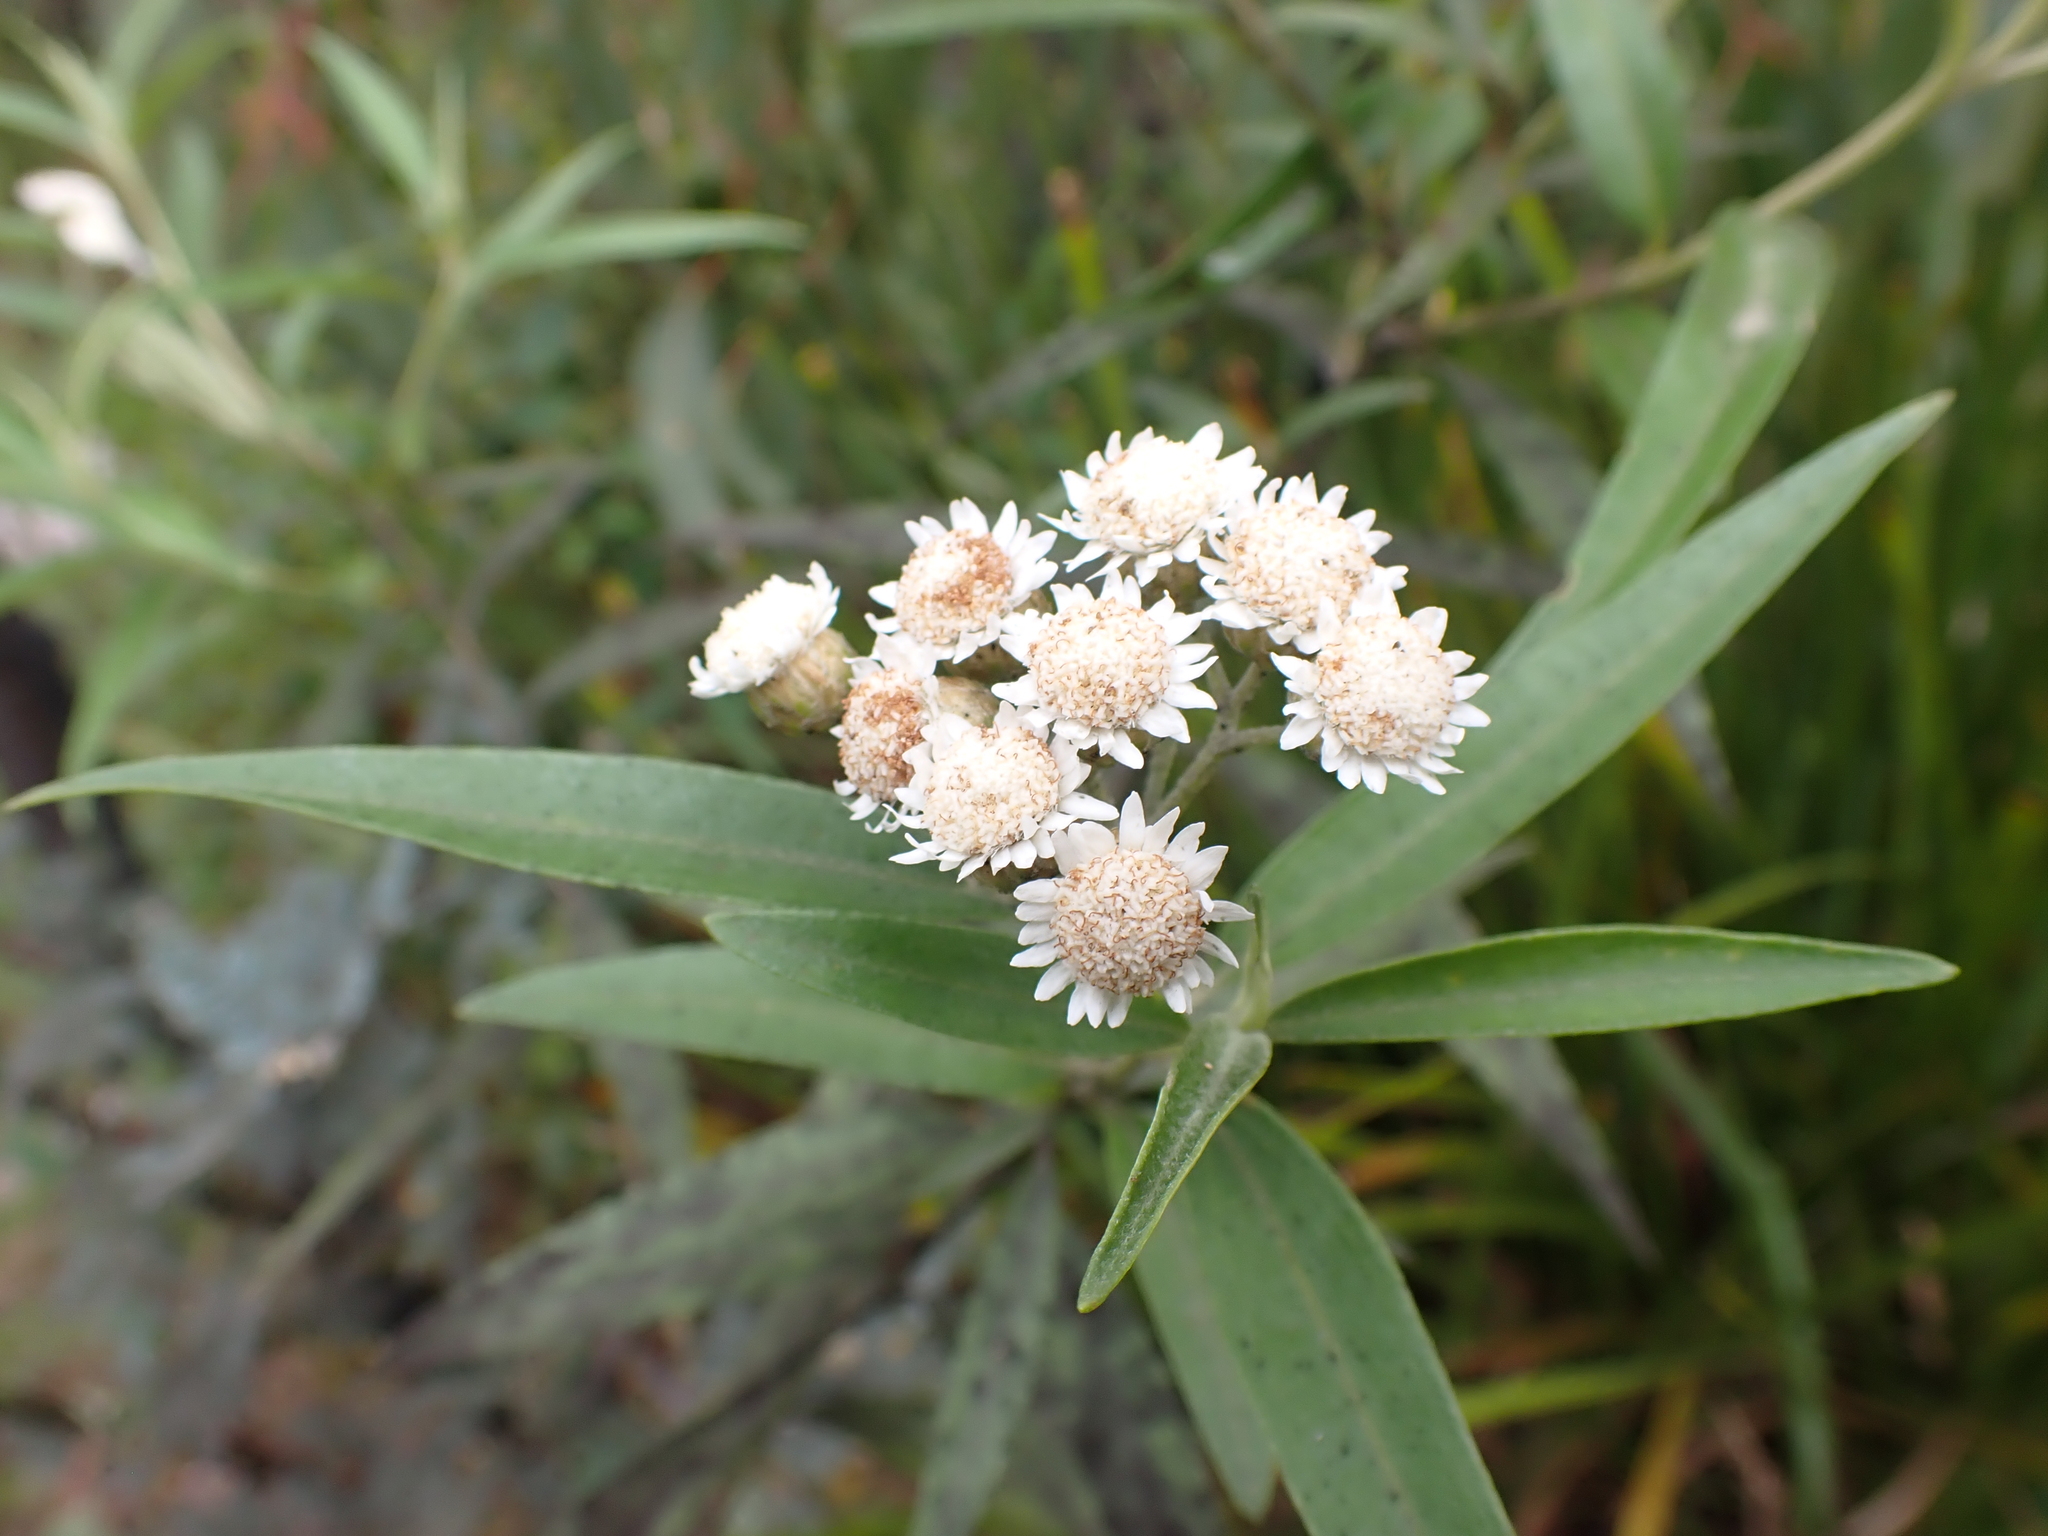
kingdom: Plantae
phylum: Tracheophyta
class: Magnoliopsida
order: Asterales
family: Asteraceae
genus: Ozothamnus
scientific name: Ozothamnus stirlingii
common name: Ovens everlasting
